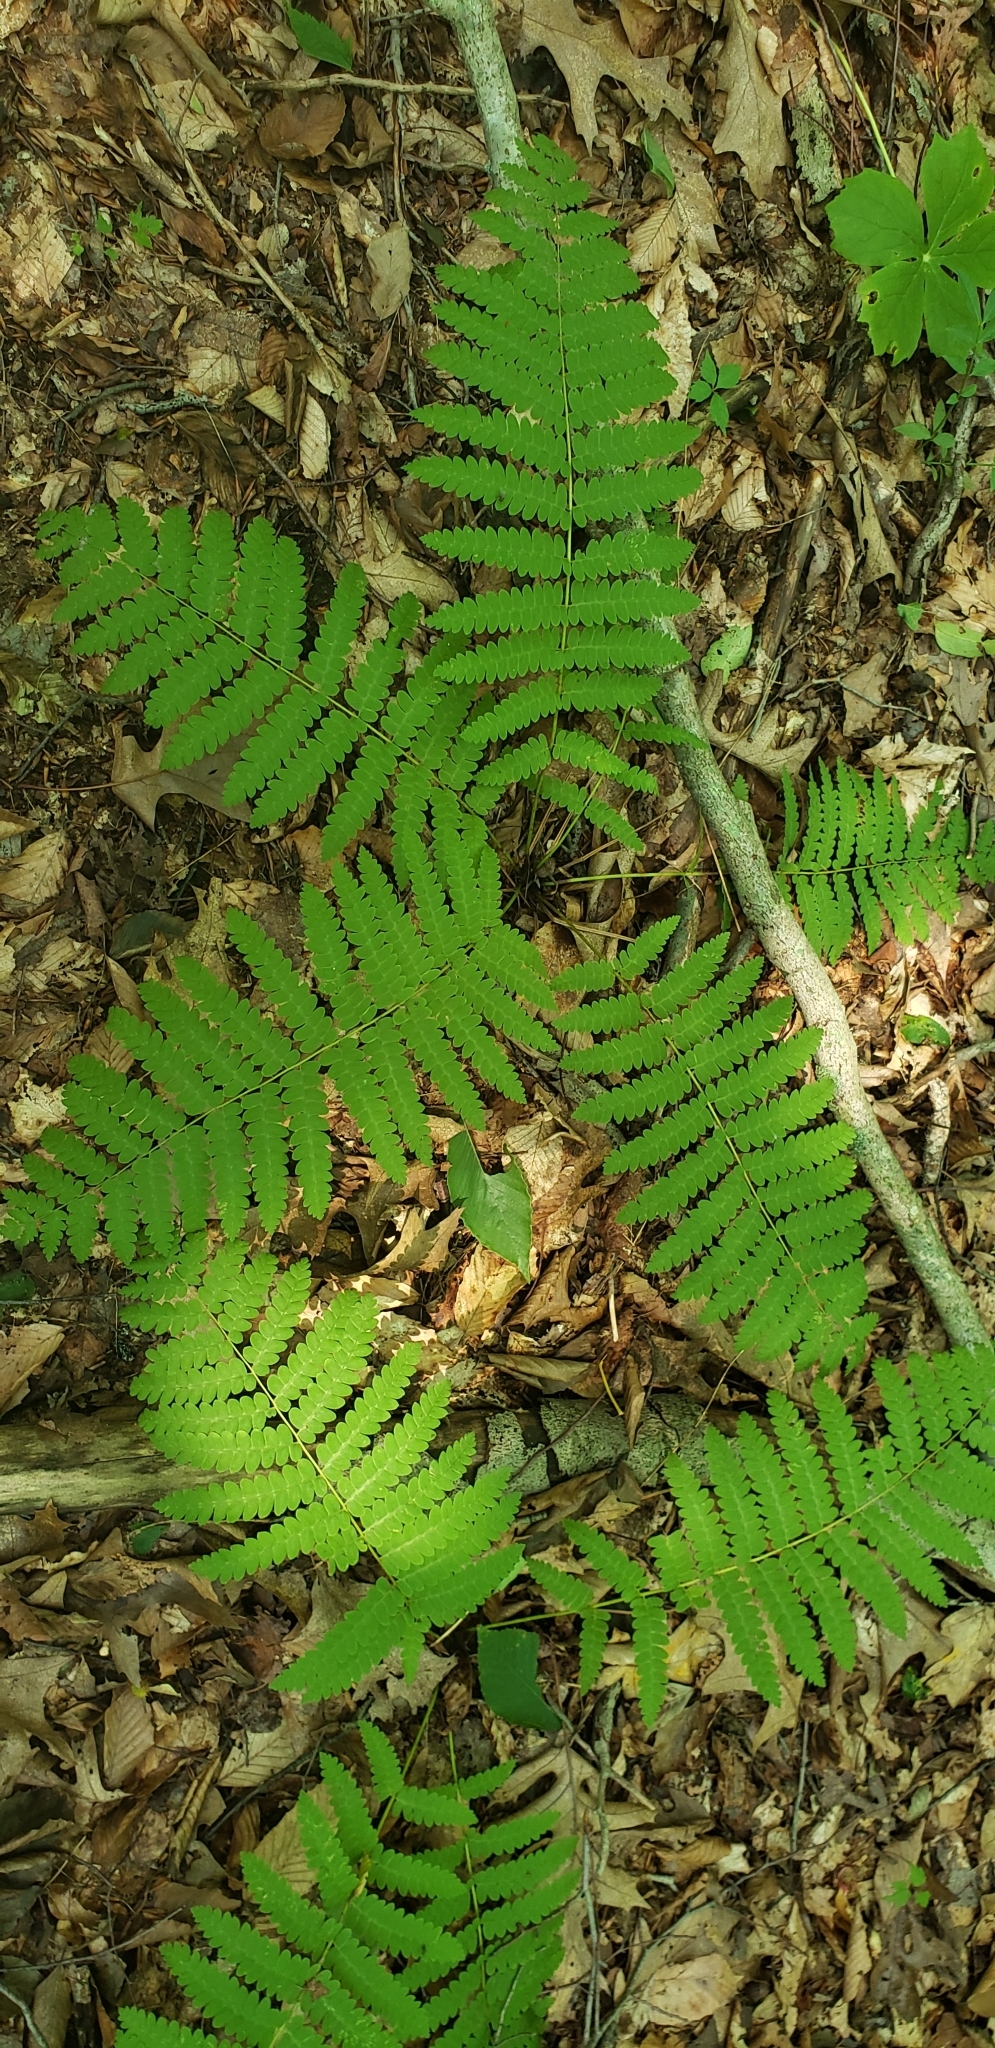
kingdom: Plantae
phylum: Tracheophyta
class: Polypodiopsida
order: Osmundales
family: Osmundaceae
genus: Claytosmunda
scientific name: Claytosmunda claytoniana
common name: Clayton's fern
